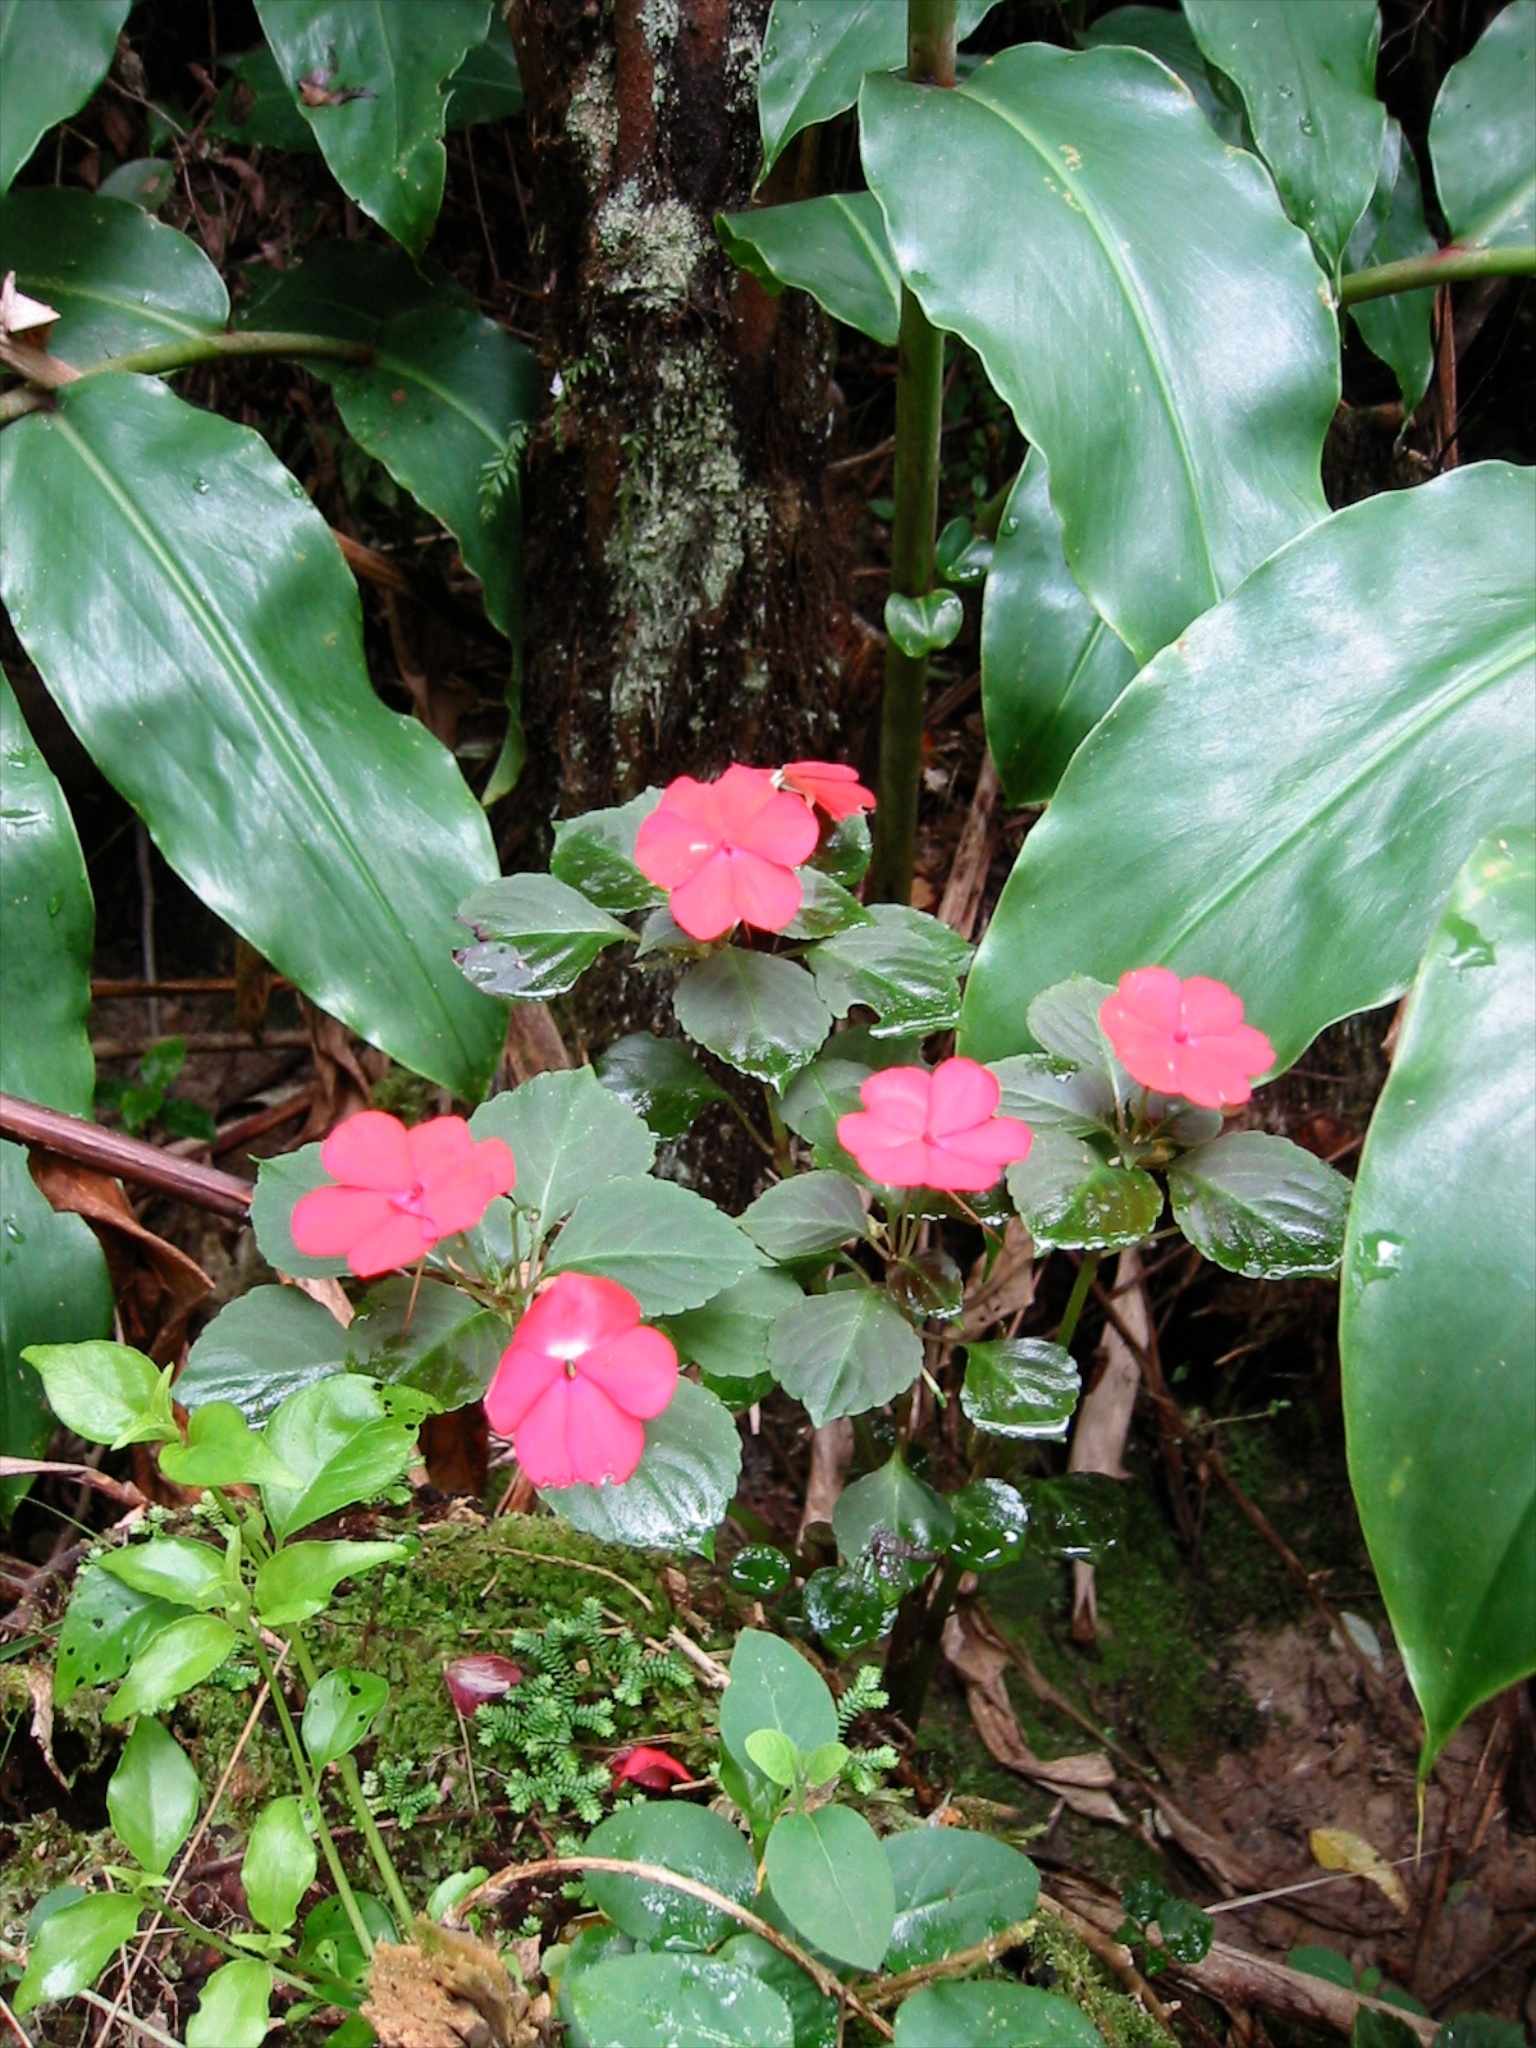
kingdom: Plantae
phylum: Tracheophyta
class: Magnoliopsida
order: Ericales
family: Balsaminaceae
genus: Impatiens
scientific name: Impatiens walleriana
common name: Buzzy lizzy
